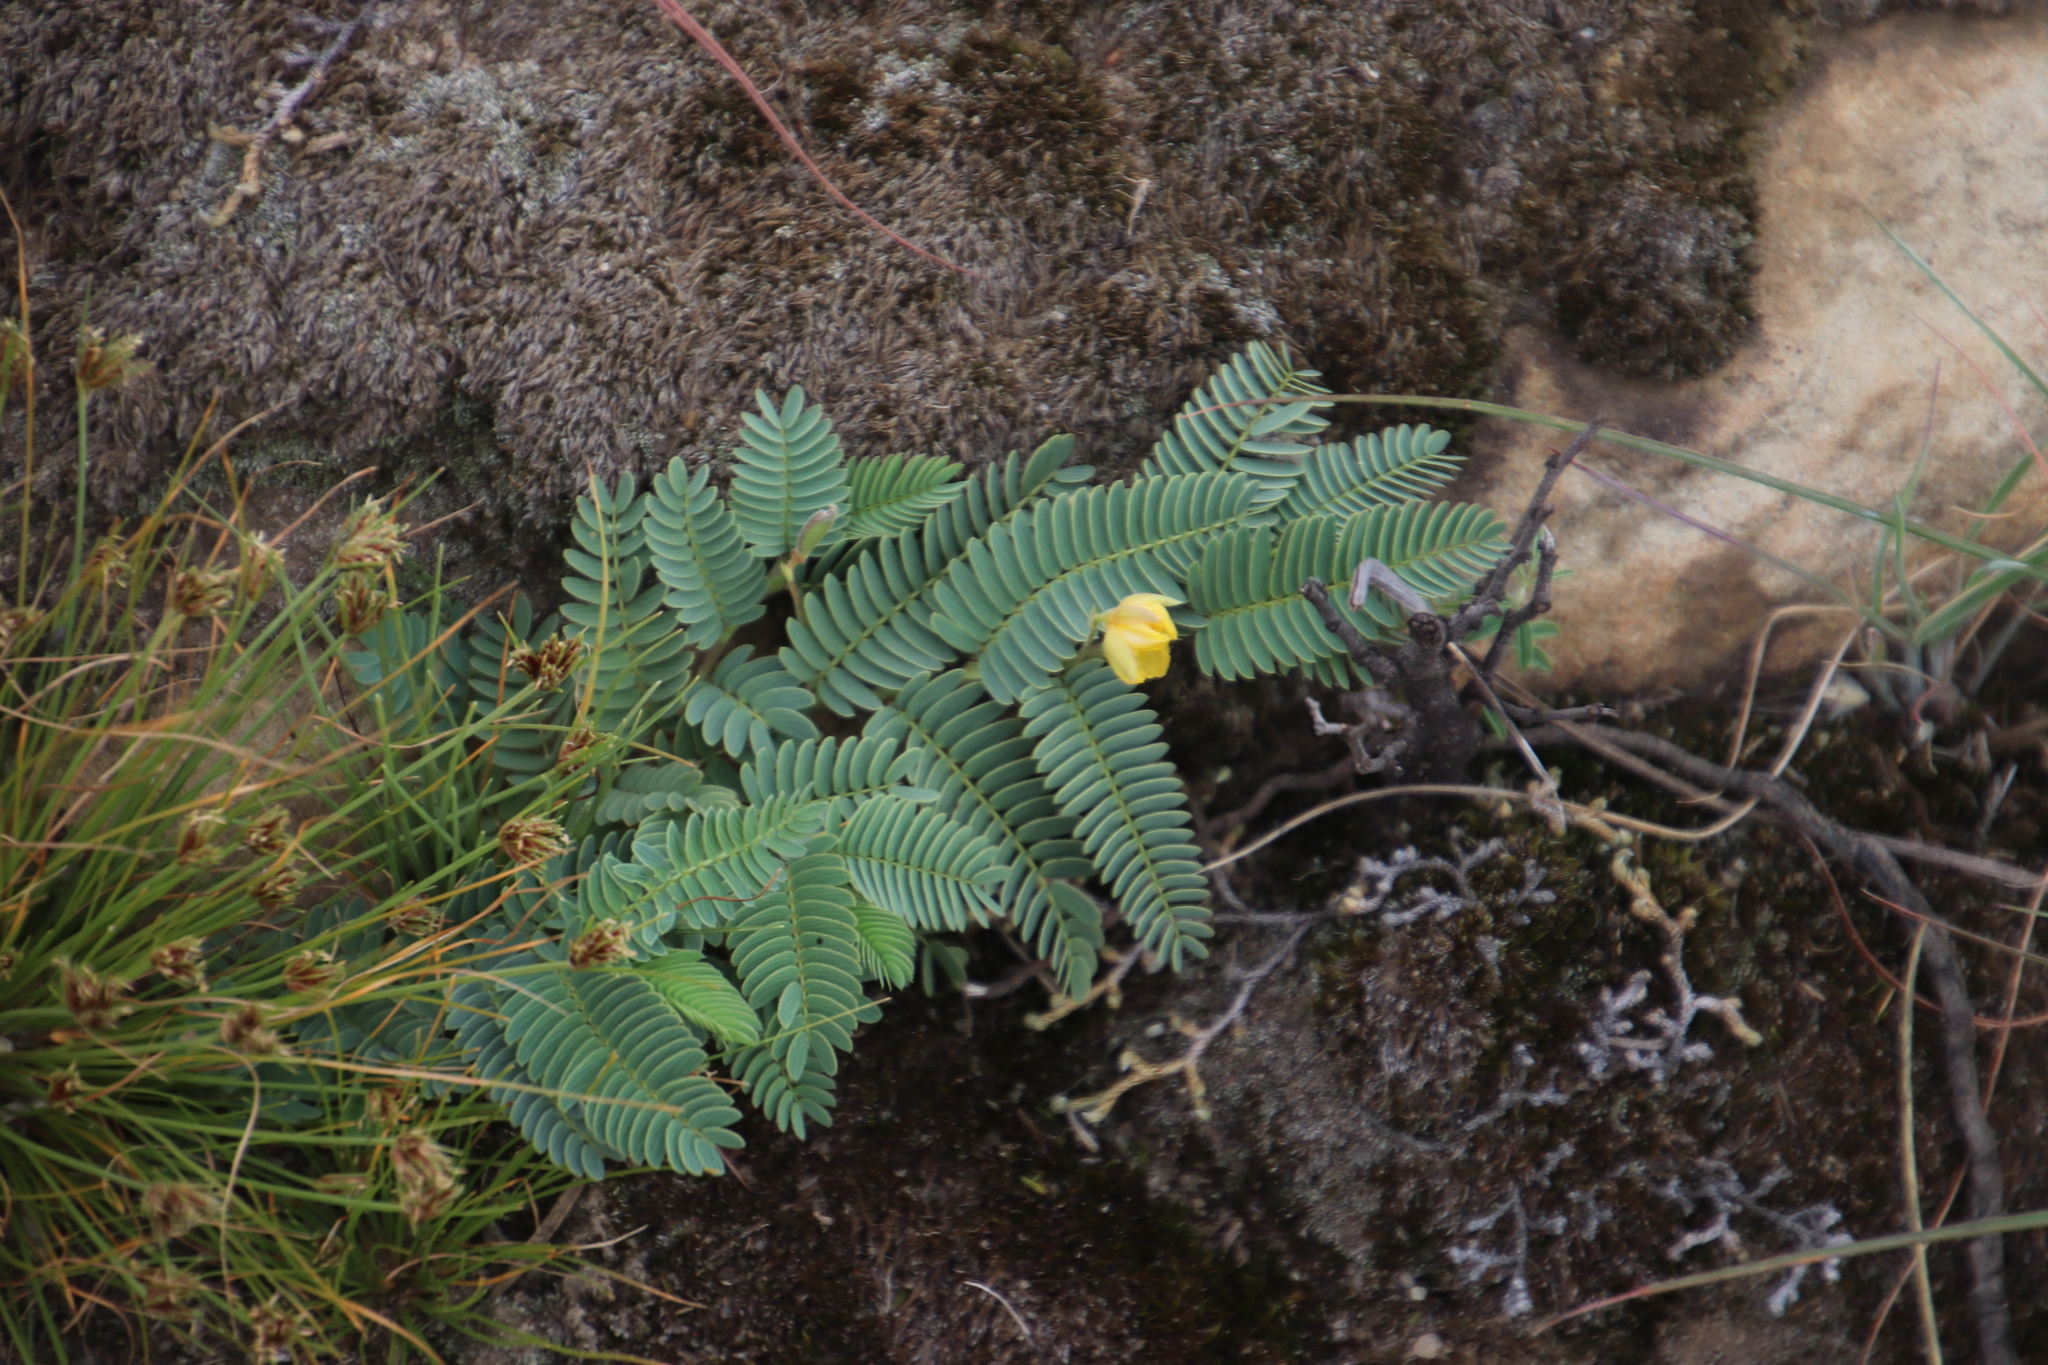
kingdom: Plantae
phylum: Tracheophyta
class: Magnoliopsida
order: Fabales
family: Fabaceae
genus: Chamaecrista
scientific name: Chamaecrista biensis
